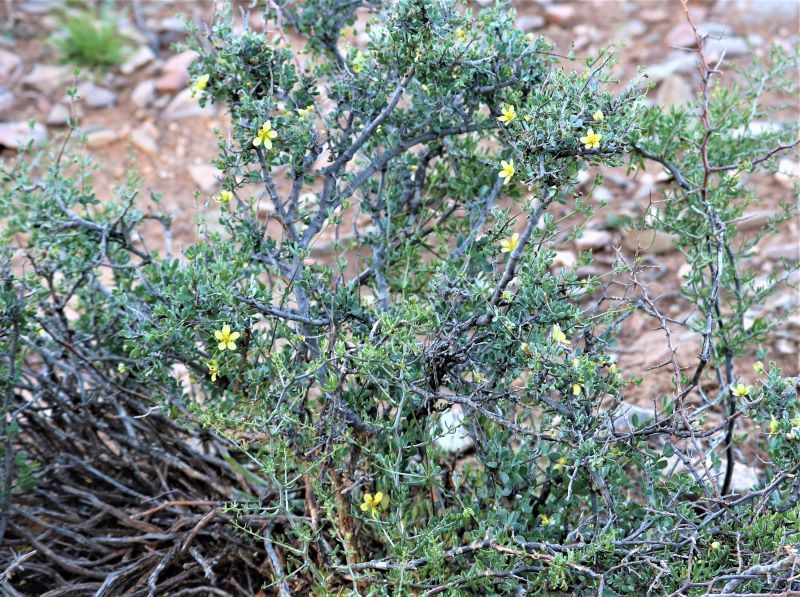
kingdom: Plantae
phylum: Tracheophyta
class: Magnoliopsida
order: Zygophyllales
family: Zygophyllaceae
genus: Roepera
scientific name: Roepera lichtensteiniana
